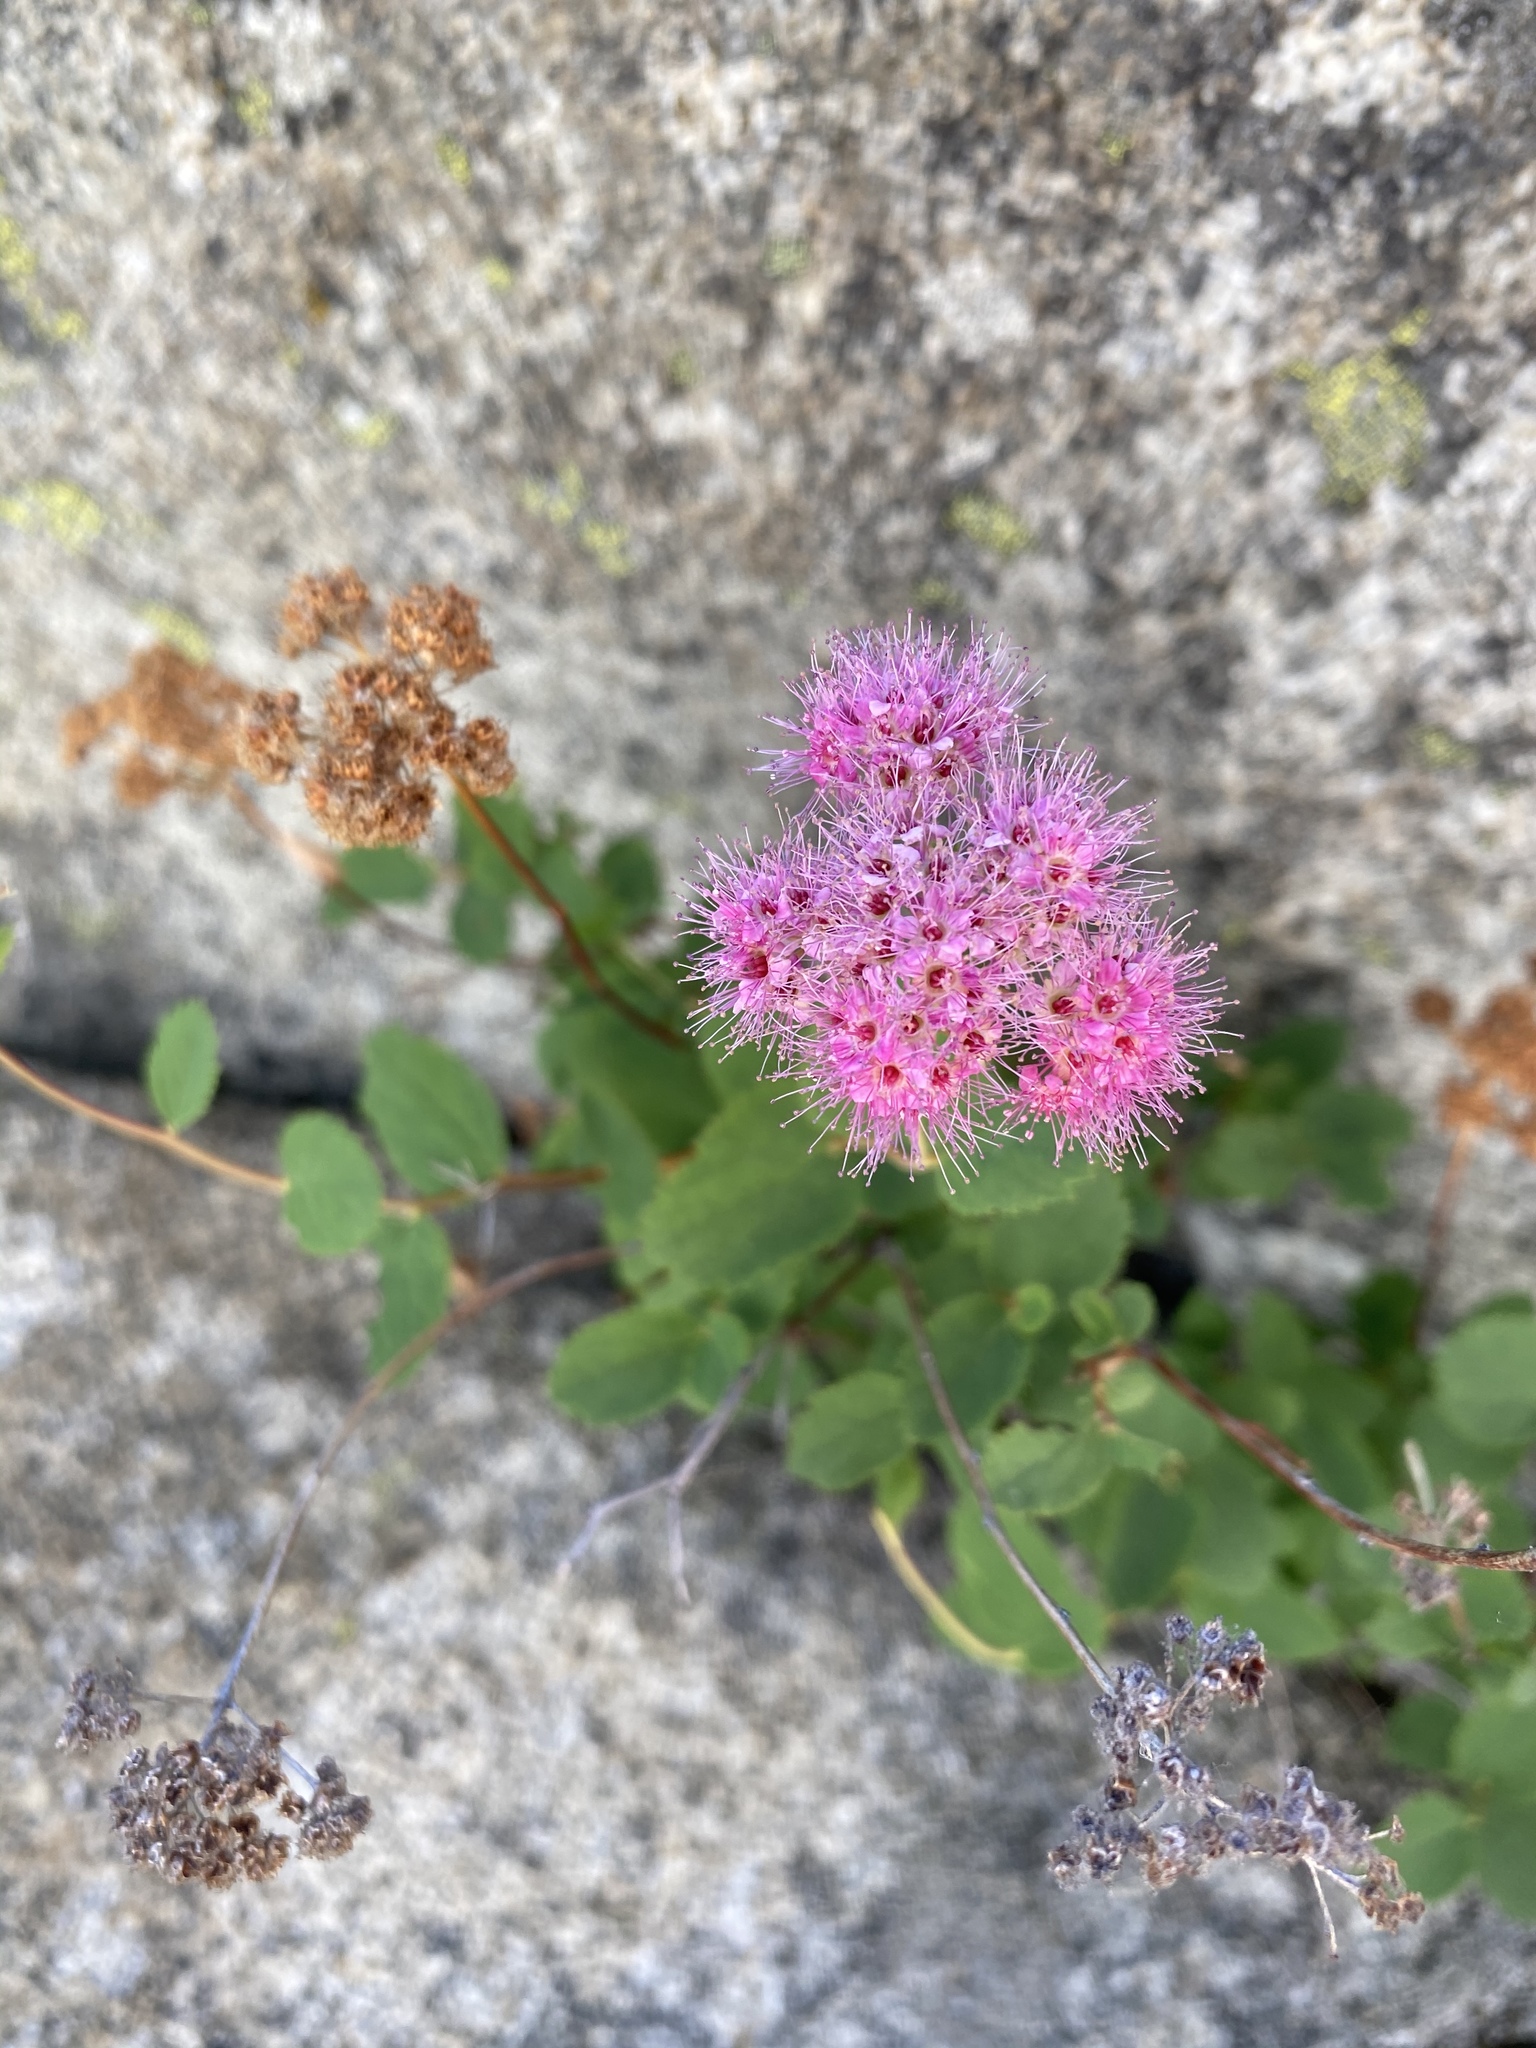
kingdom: Plantae
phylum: Tracheophyta
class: Magnoliopsida
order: Rosales
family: Rosaceae
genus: Spiraea
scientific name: Spiraea splendens
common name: Subalpine meadowsweet
